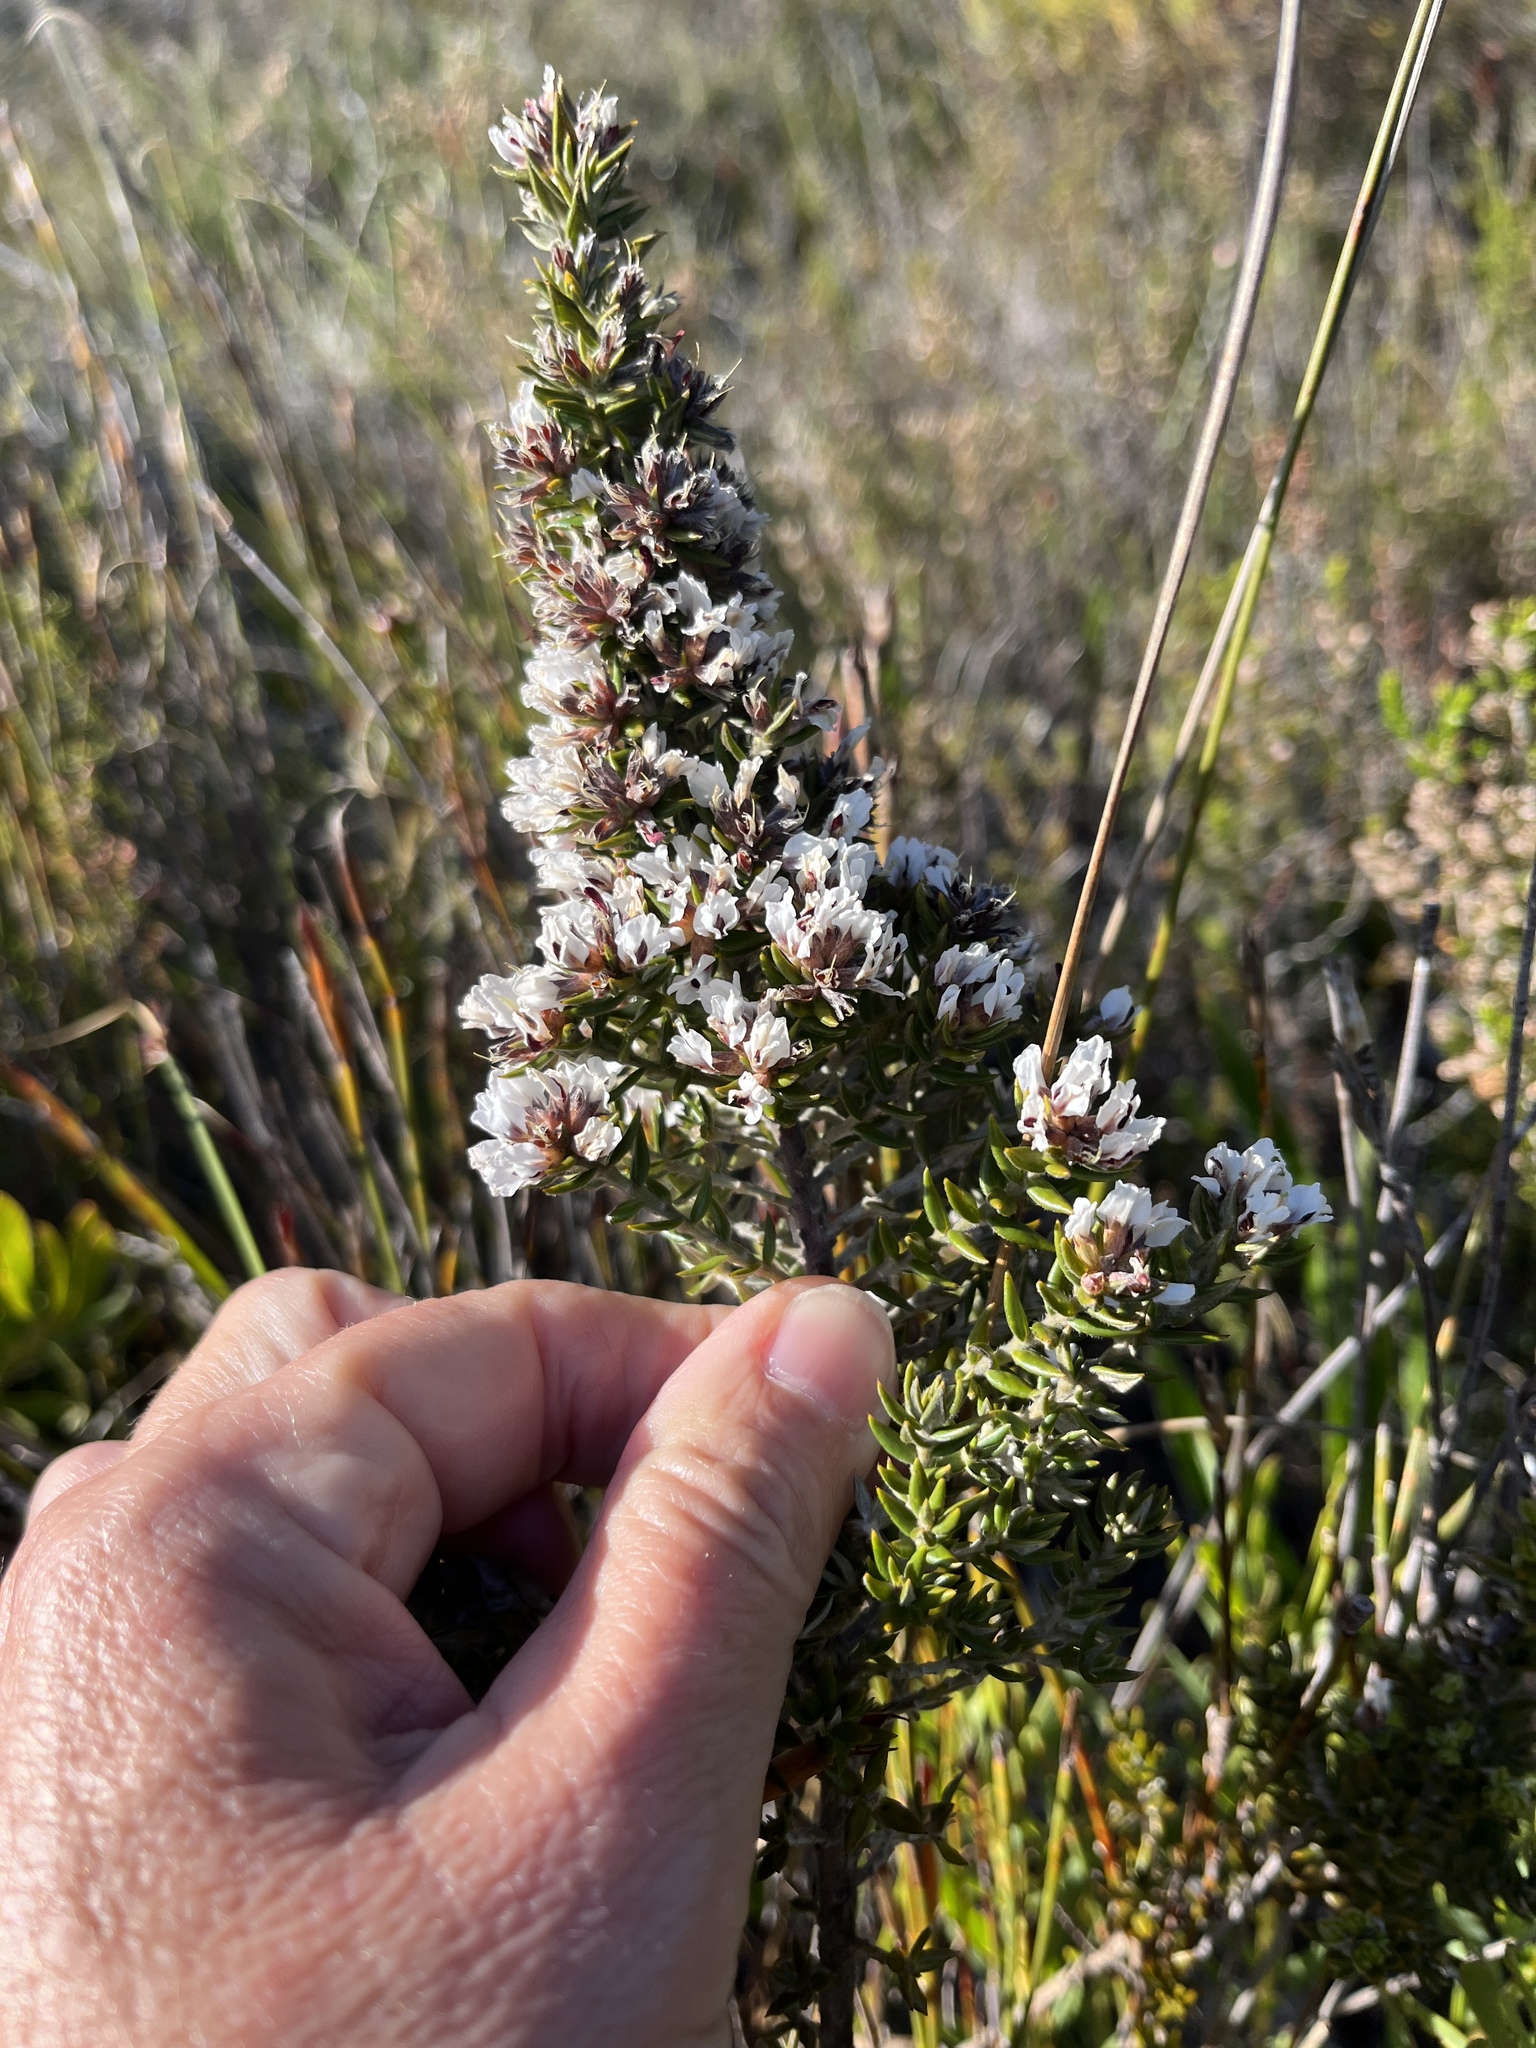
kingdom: Plantae
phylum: Tracheophyta
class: Magnoliopsida
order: Fabales
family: Fabaceae
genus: Amphithalea
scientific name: Amphithalea speciosa
